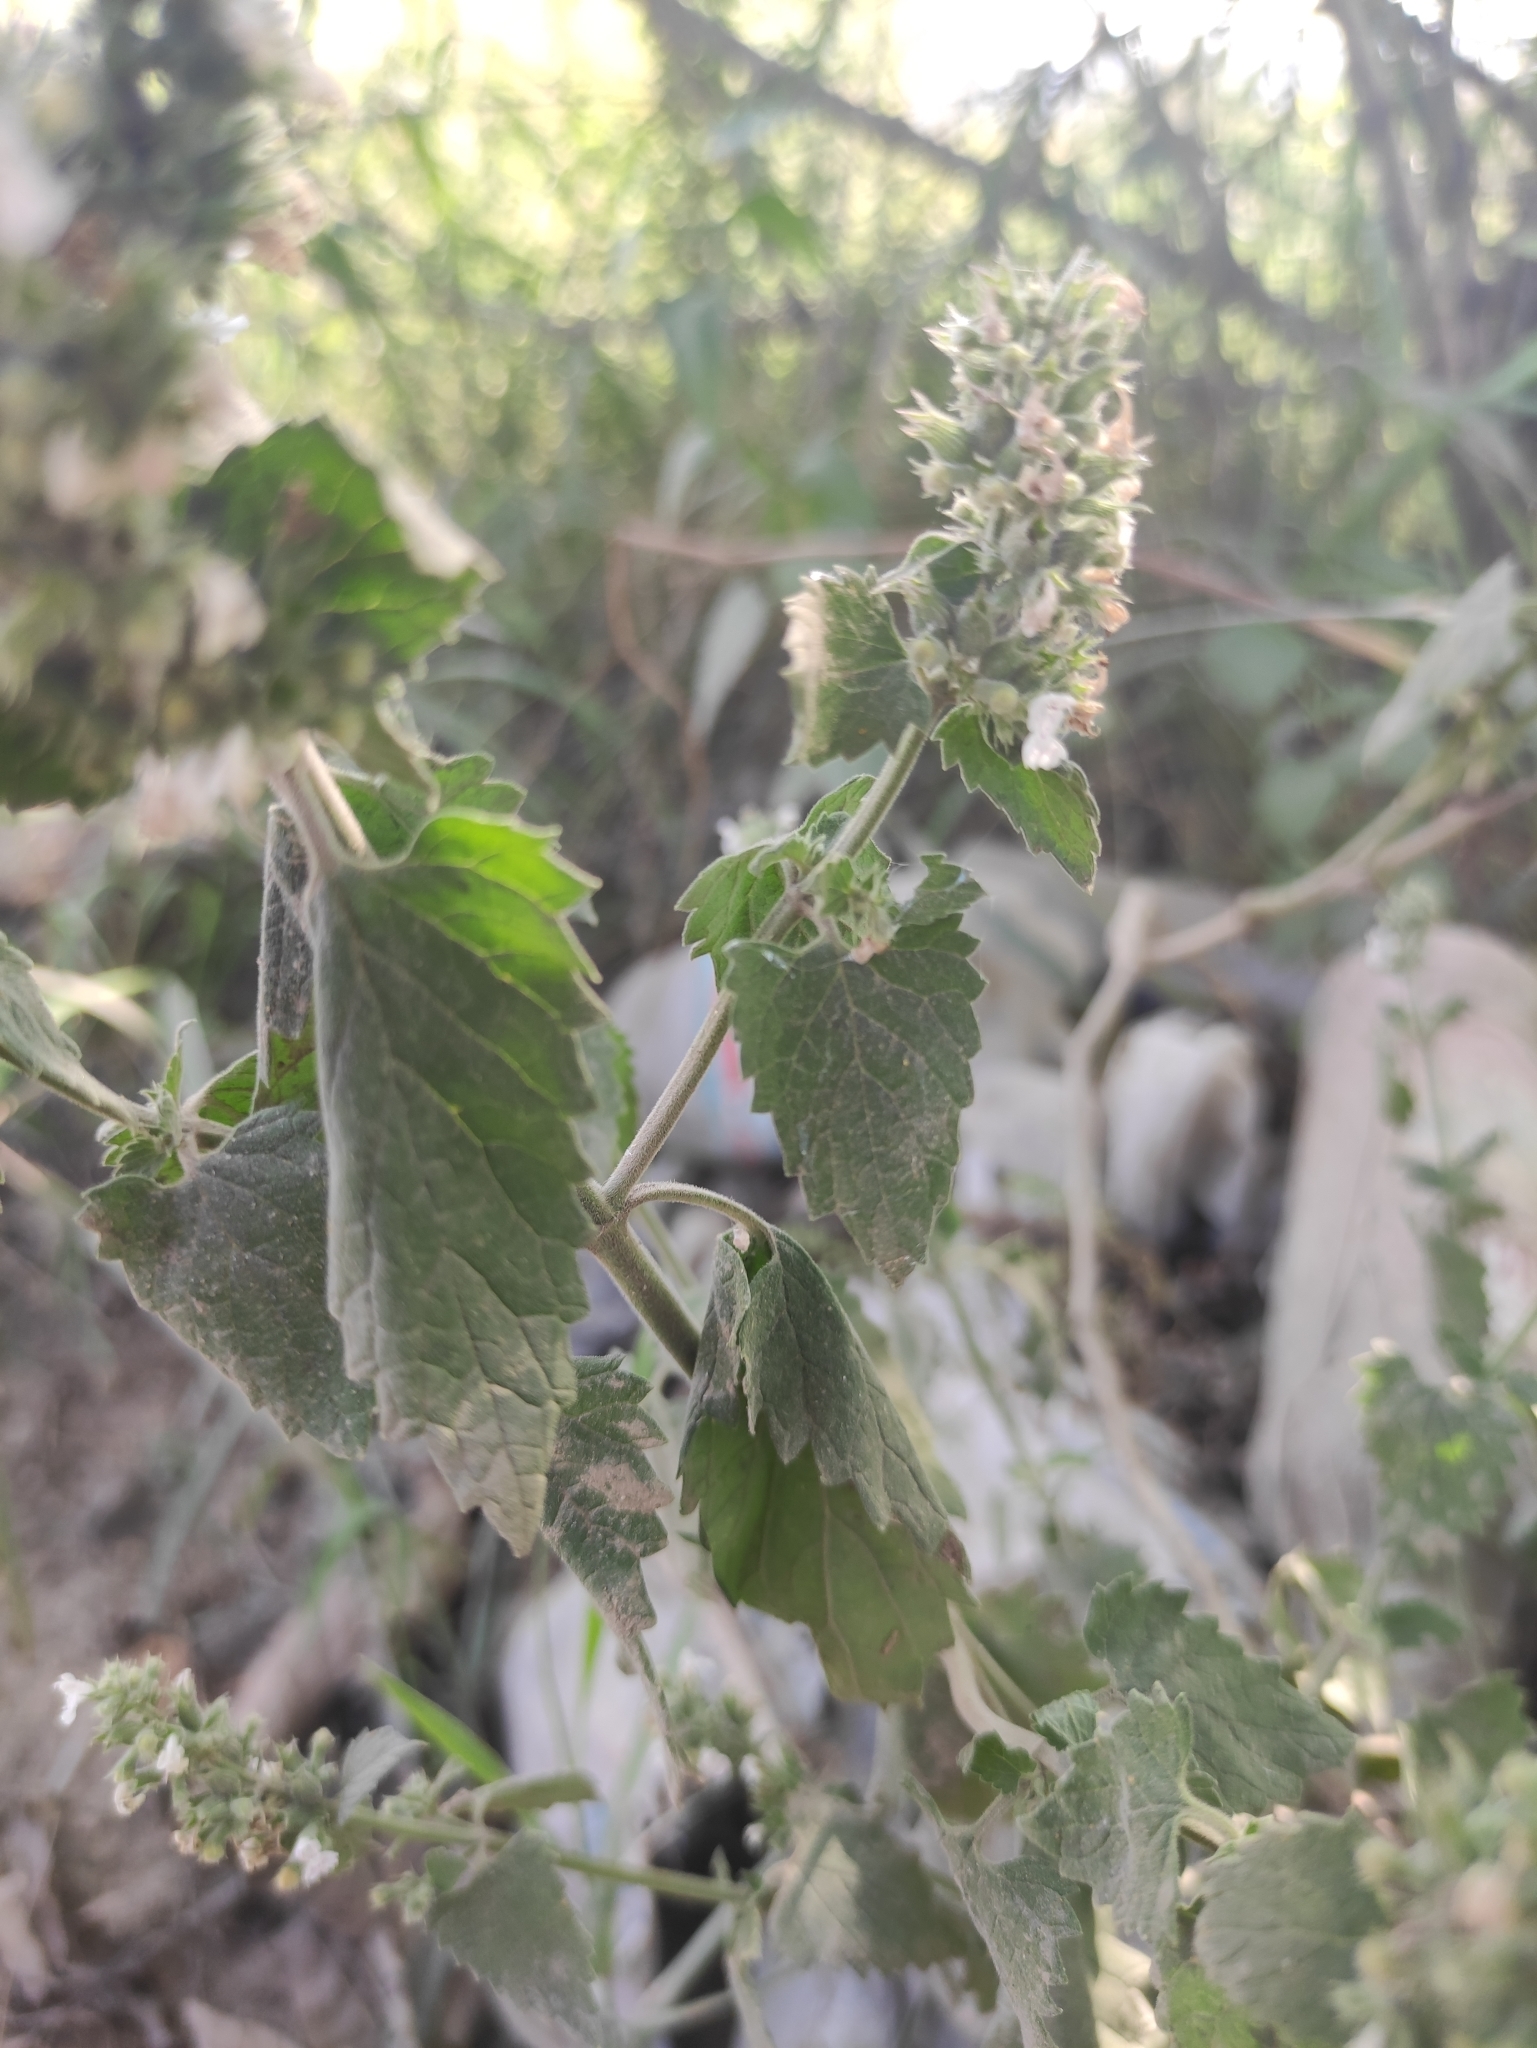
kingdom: Plantae
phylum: Tracheophyta
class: Magnoliopsida
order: Lamiales
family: Lamiaceae
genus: Nepeta
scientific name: Nepeta cataria
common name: Catnip
